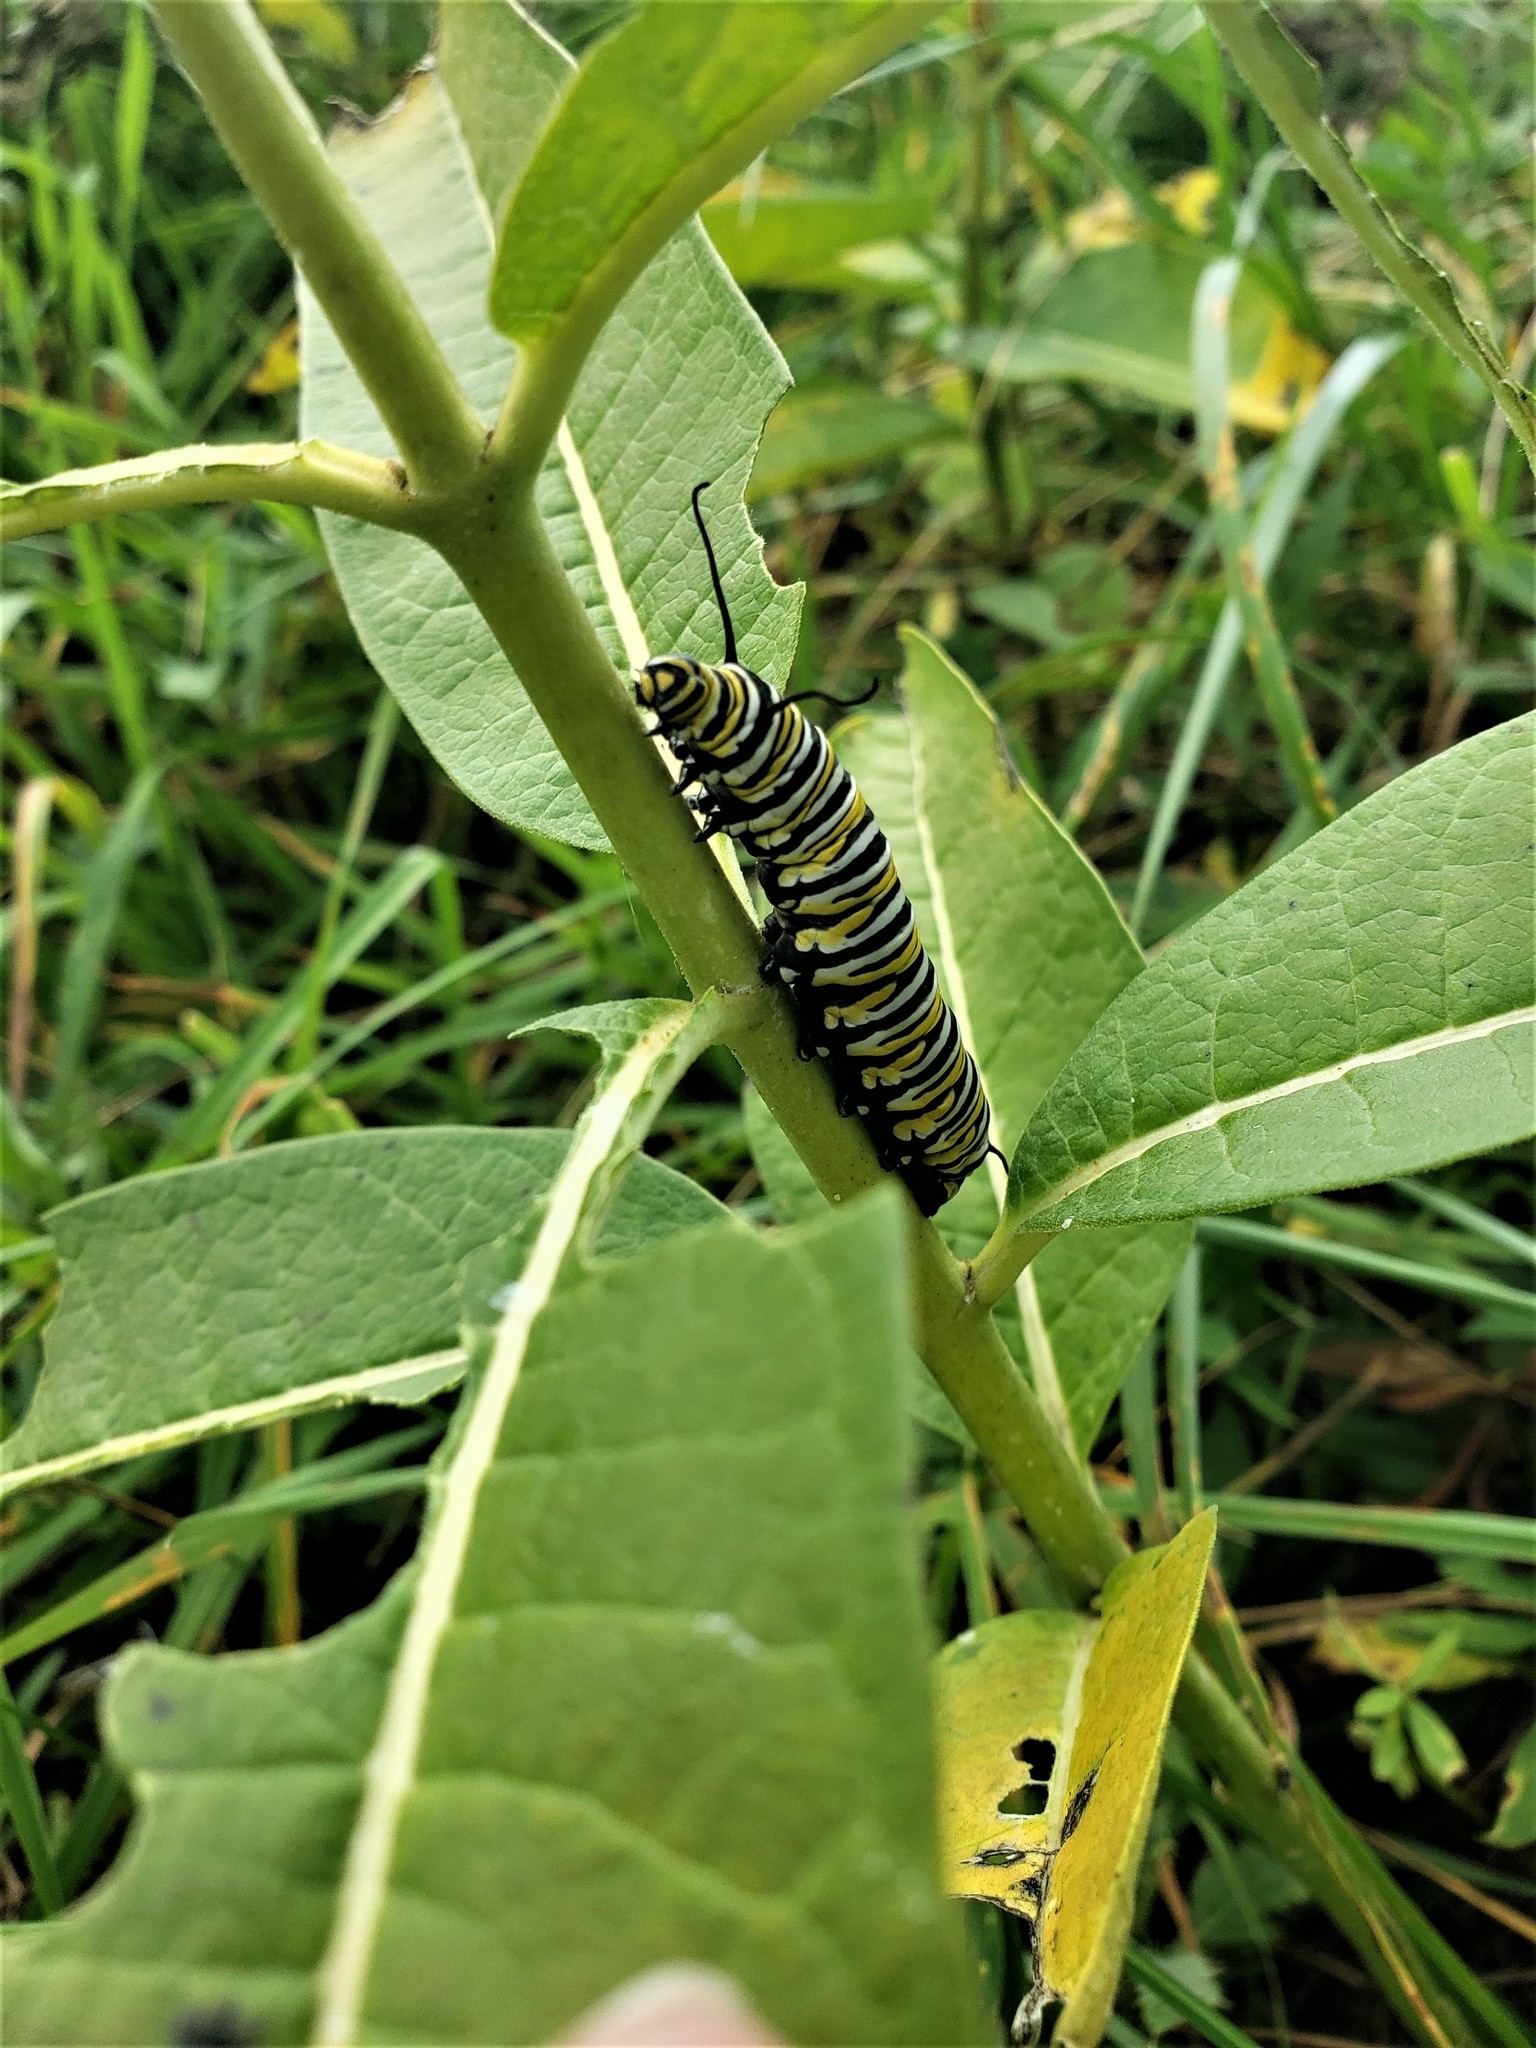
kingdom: Animalia
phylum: Arthropoda
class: Insecta
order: Lepidoptera
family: Nymphalidae
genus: Danaus
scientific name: Danaus plexippus
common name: Monarch
